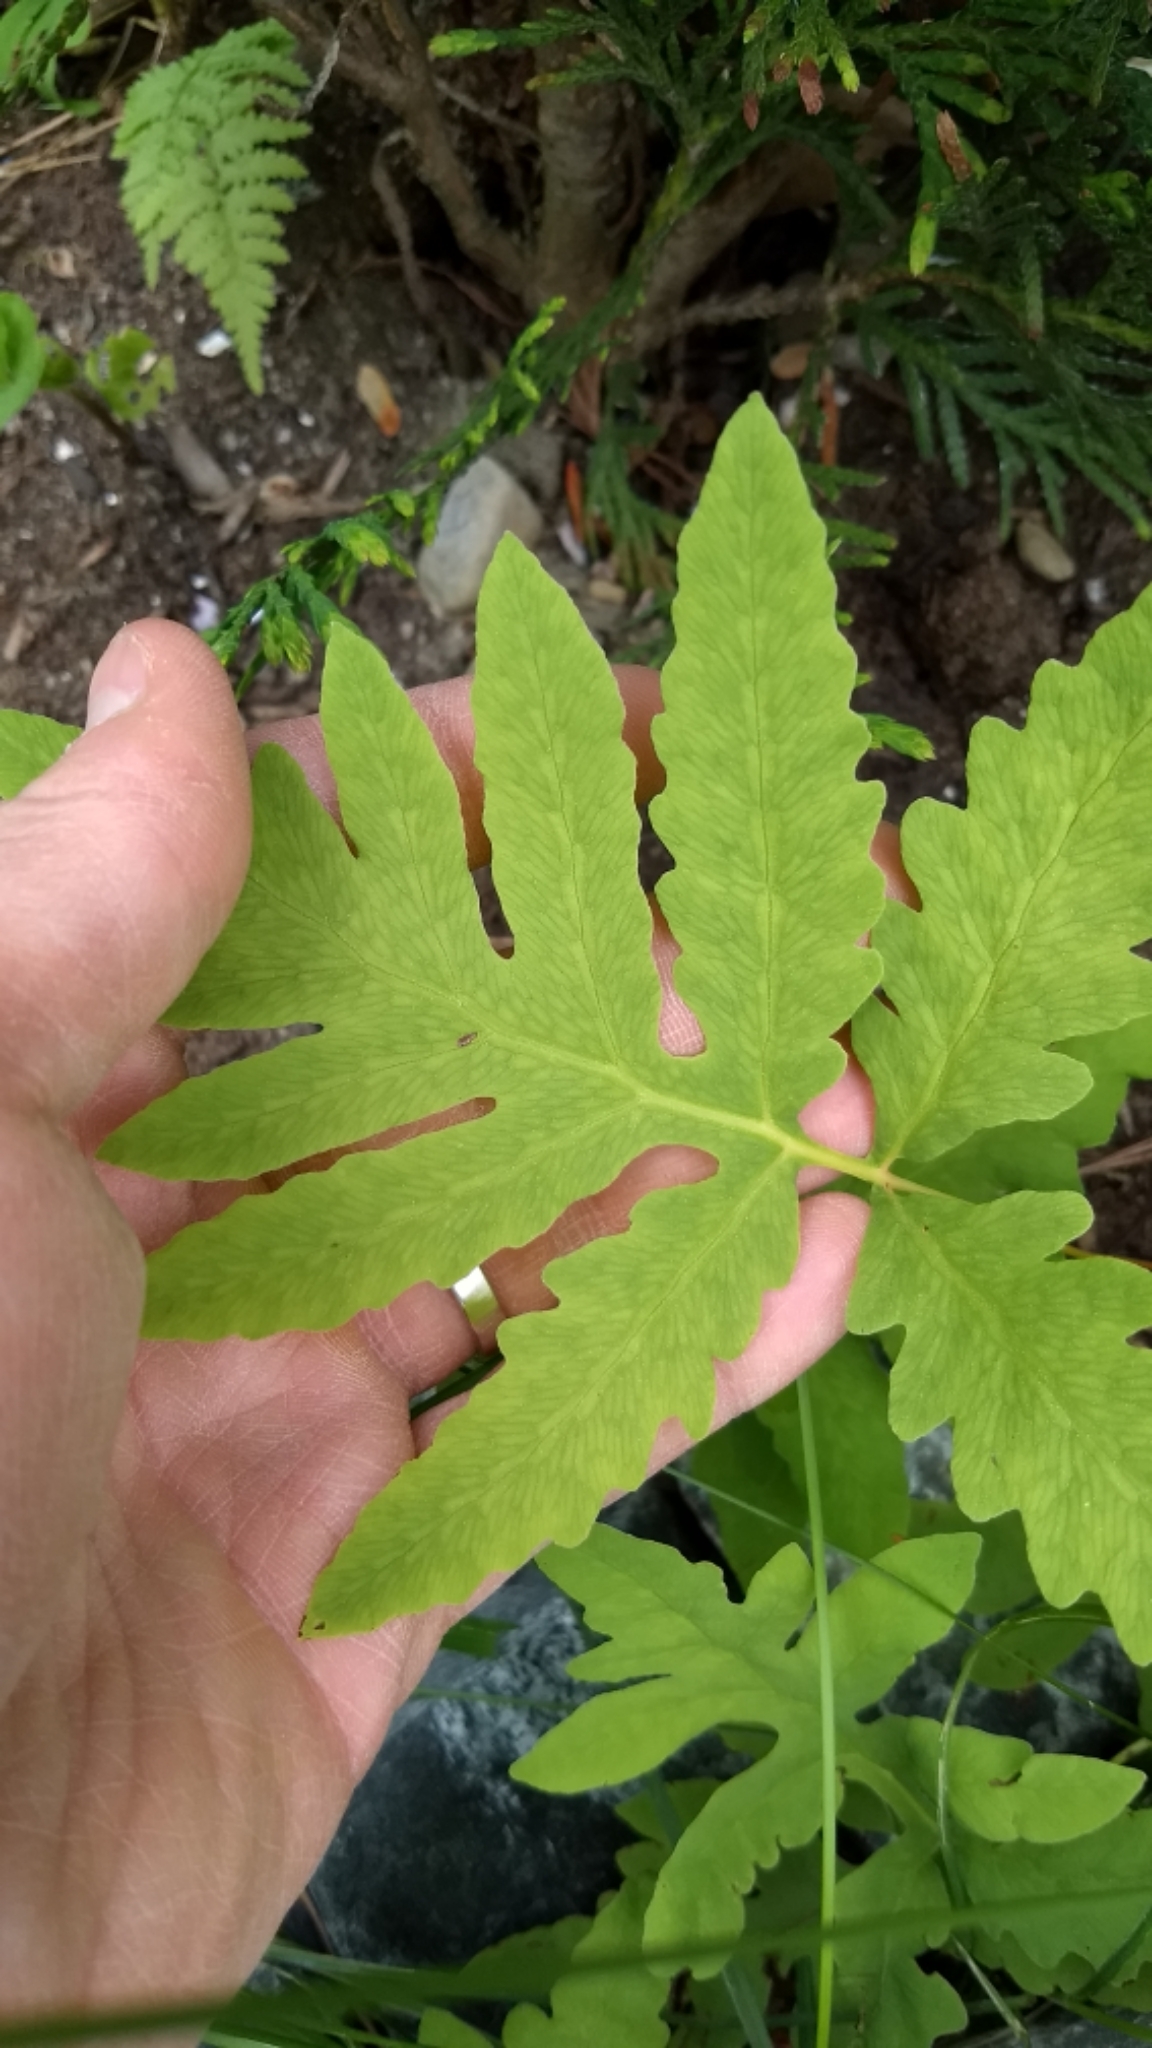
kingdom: Plantae
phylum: Tracheophyta
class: Polypodiopsida
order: Polypodiales
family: Onocleaceae
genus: Onoclea
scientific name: Onoclea sensibilis
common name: Sensitive fern
